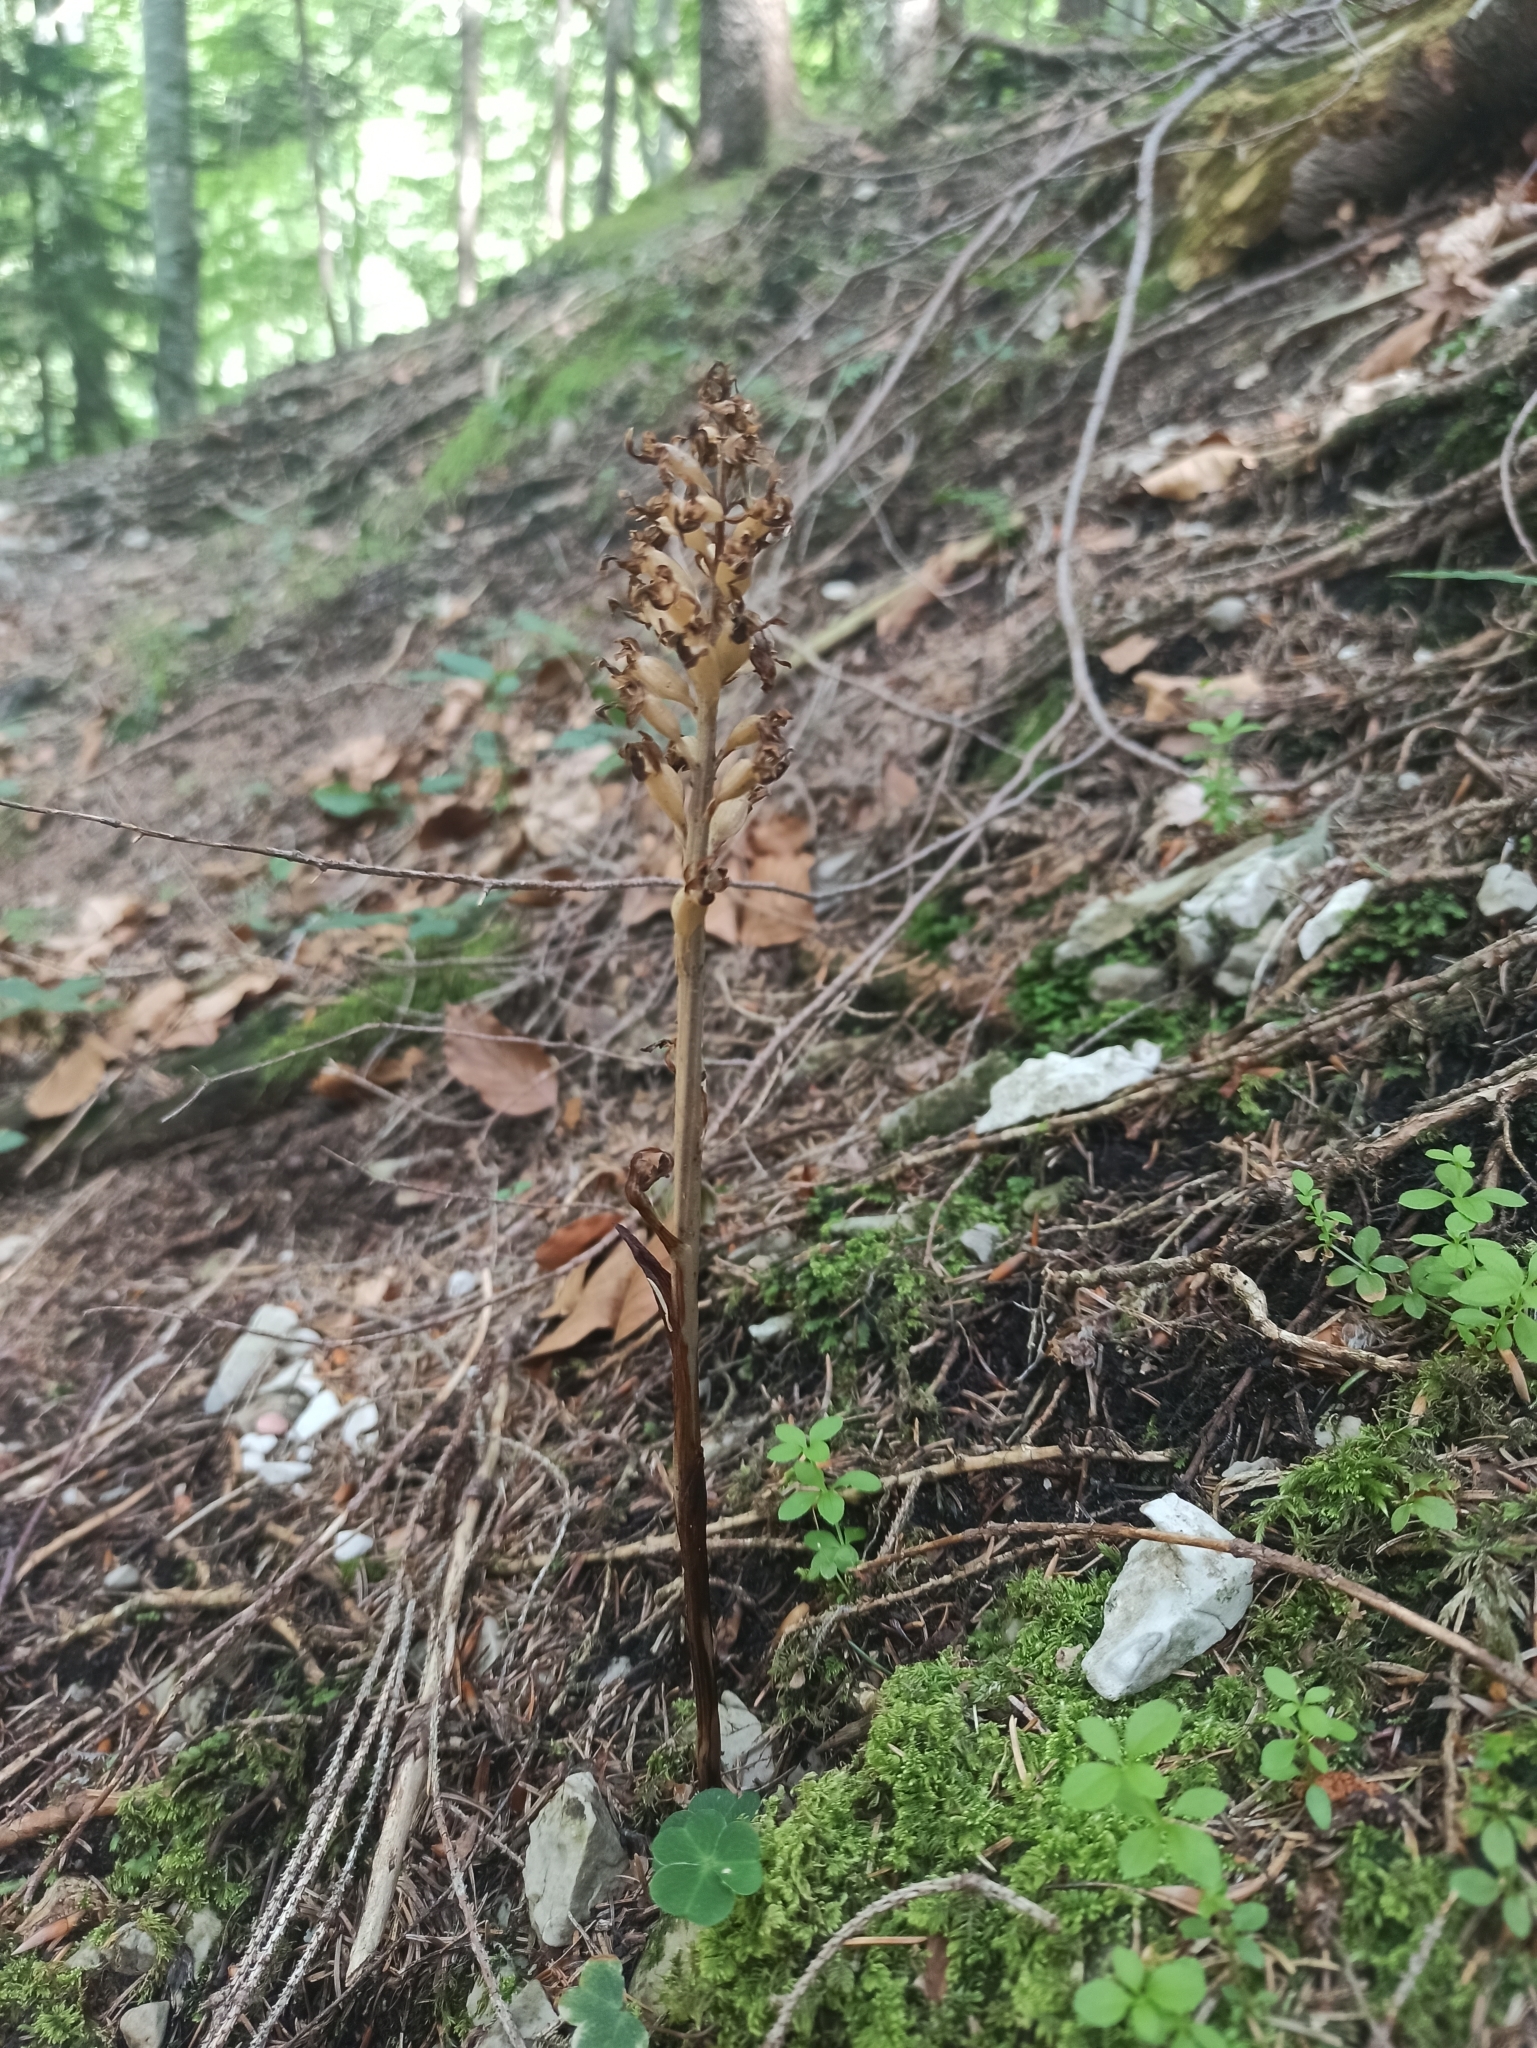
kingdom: Plantae
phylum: Tracheophyta
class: Liliopsida
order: Asparagales
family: Orchidaceae
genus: Neottia
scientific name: Neottia nidus-avis
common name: Bird's-nest orchid
